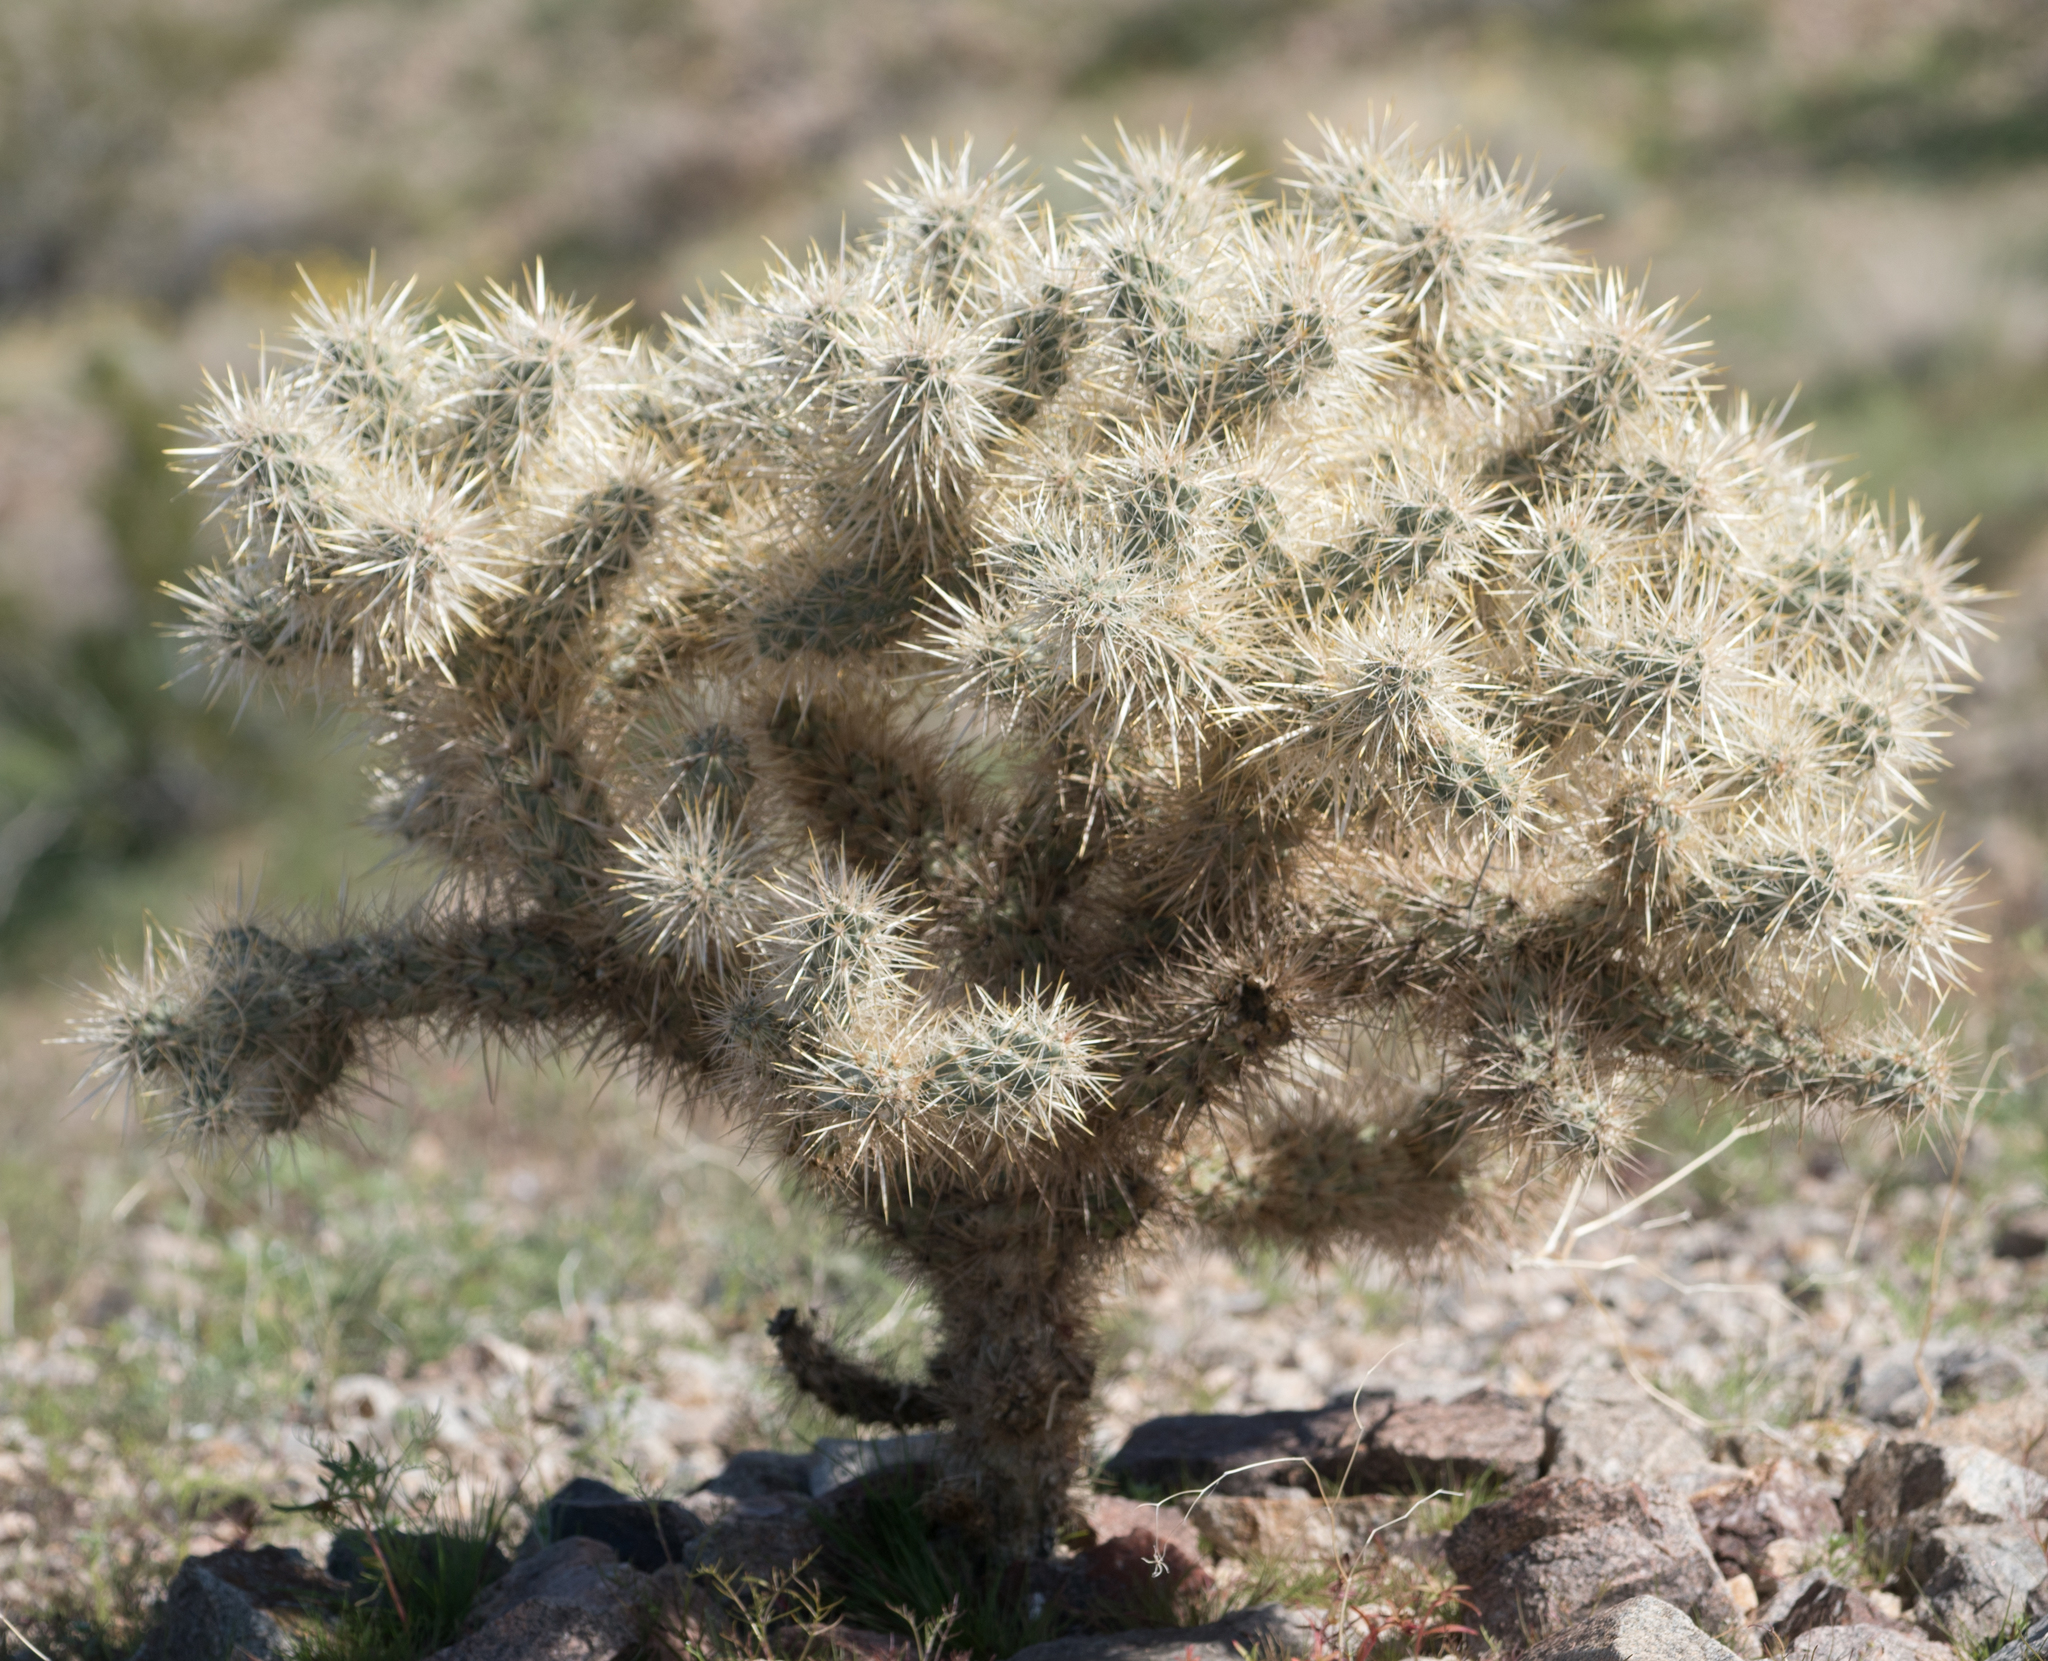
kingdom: Plantae
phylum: Tracheophyta
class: Magnoliopsida
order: Caryophyllales
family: Cactaceae
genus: Cylindropuntia
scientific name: Cylindropuntia echinocarpa
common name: Ground cholla
